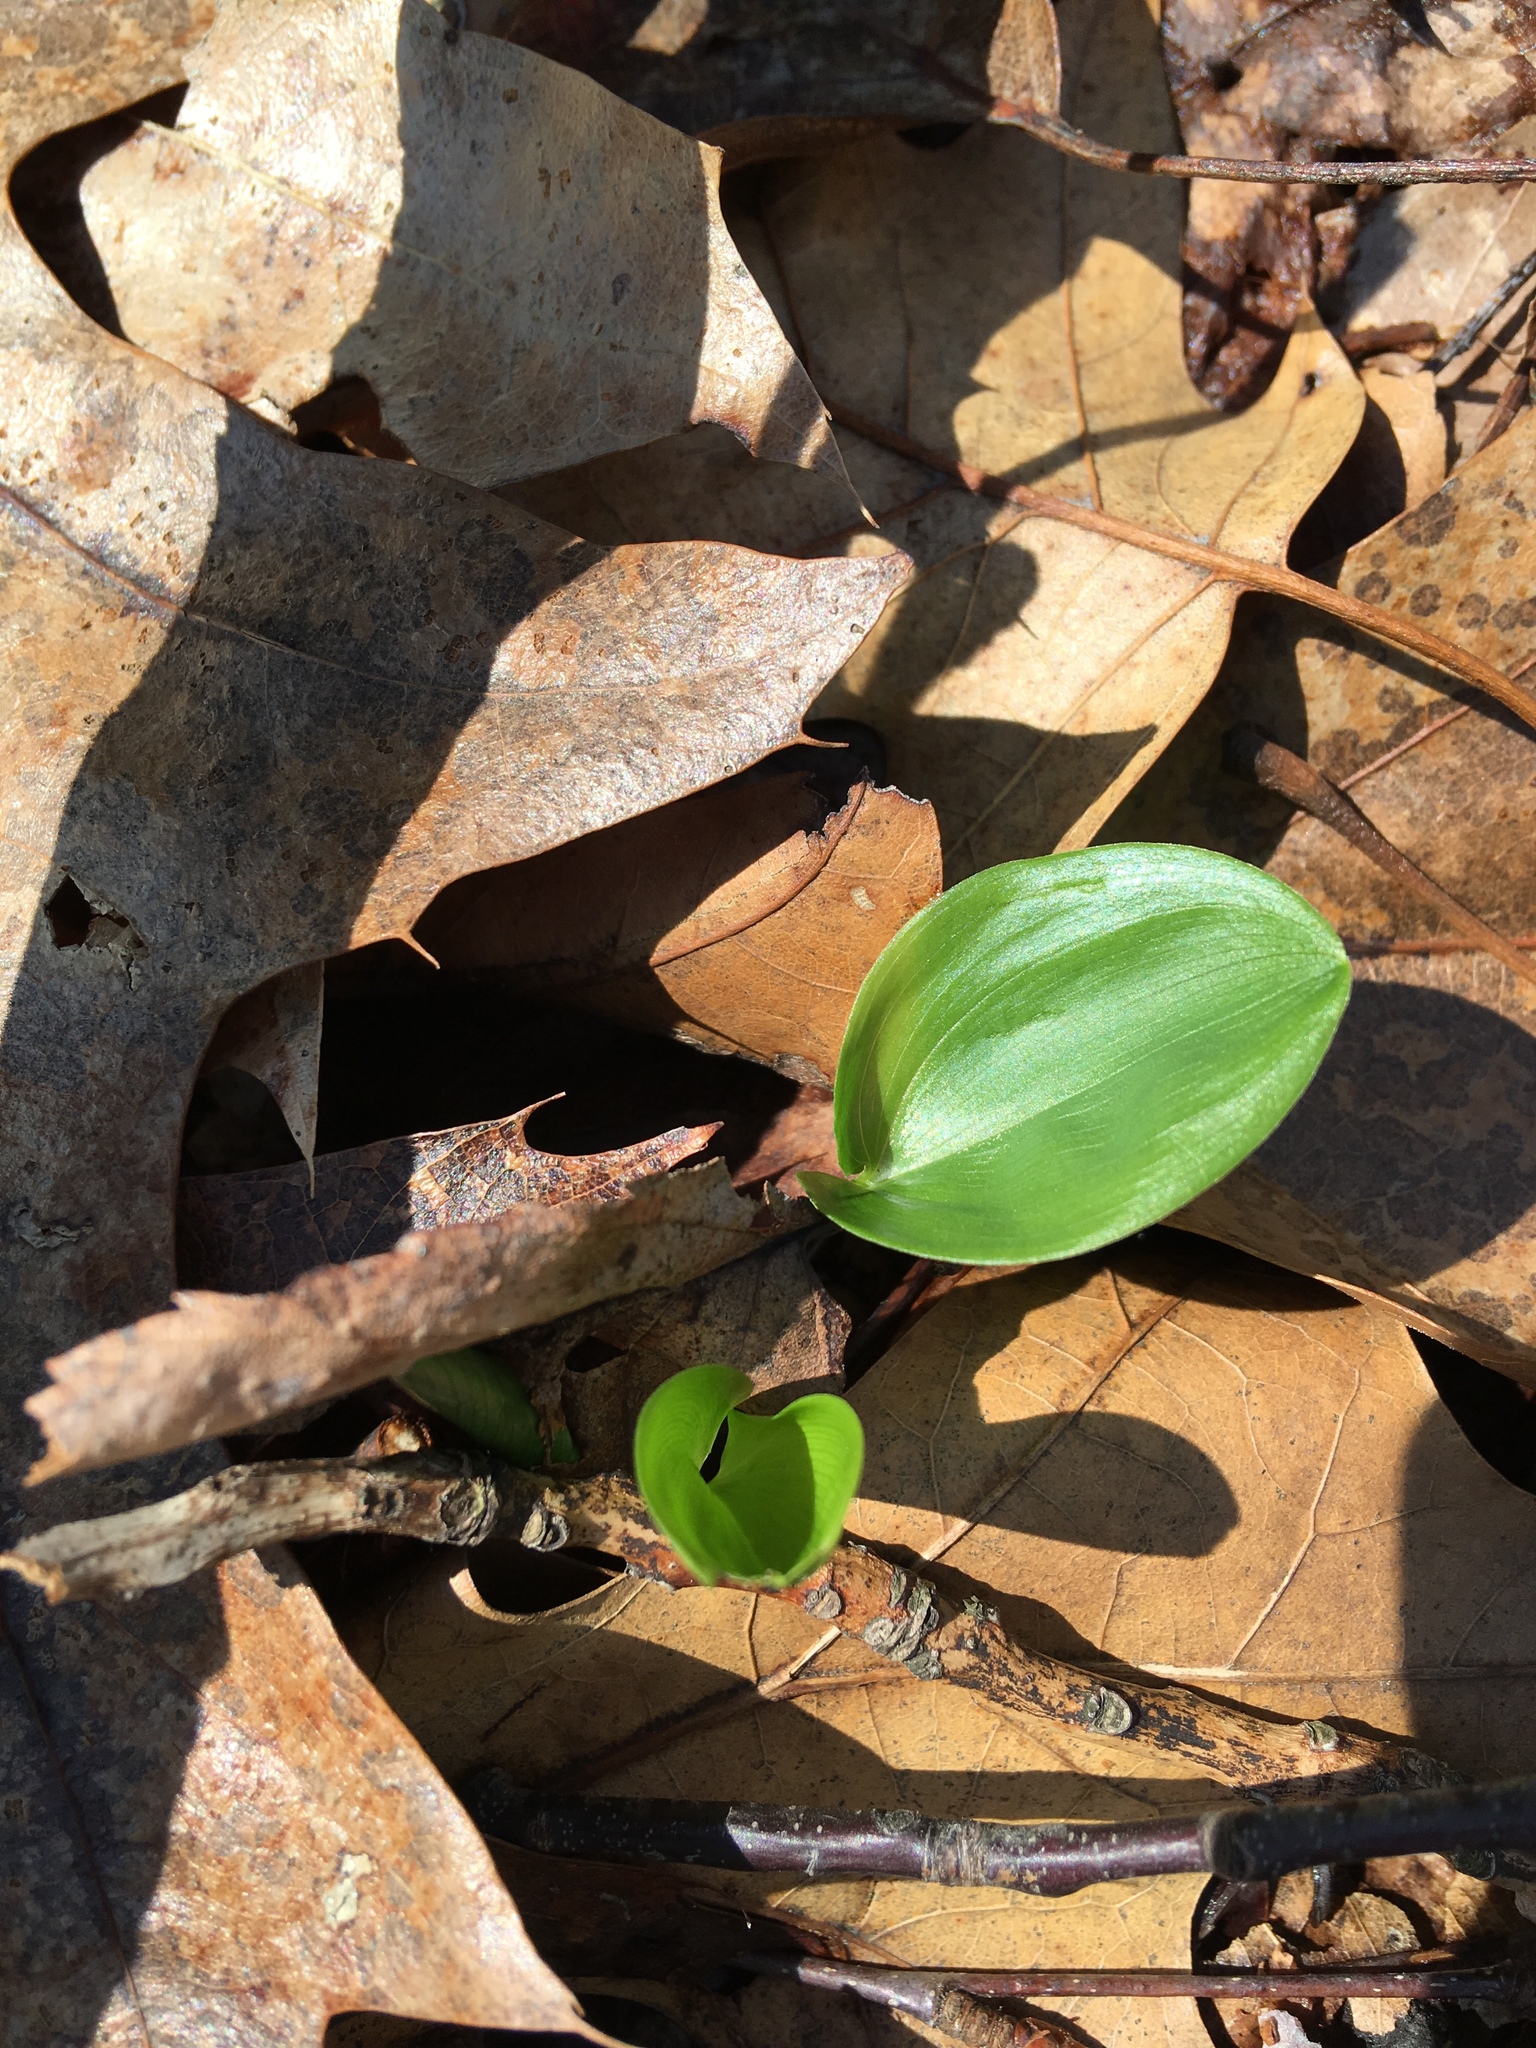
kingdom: Plantae
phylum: Tracheophyta
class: Liliopsida
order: Asparagales
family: Asparagaceae
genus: Maianthemum
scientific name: Maianthemum canadense
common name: False lily-of-the-valley
